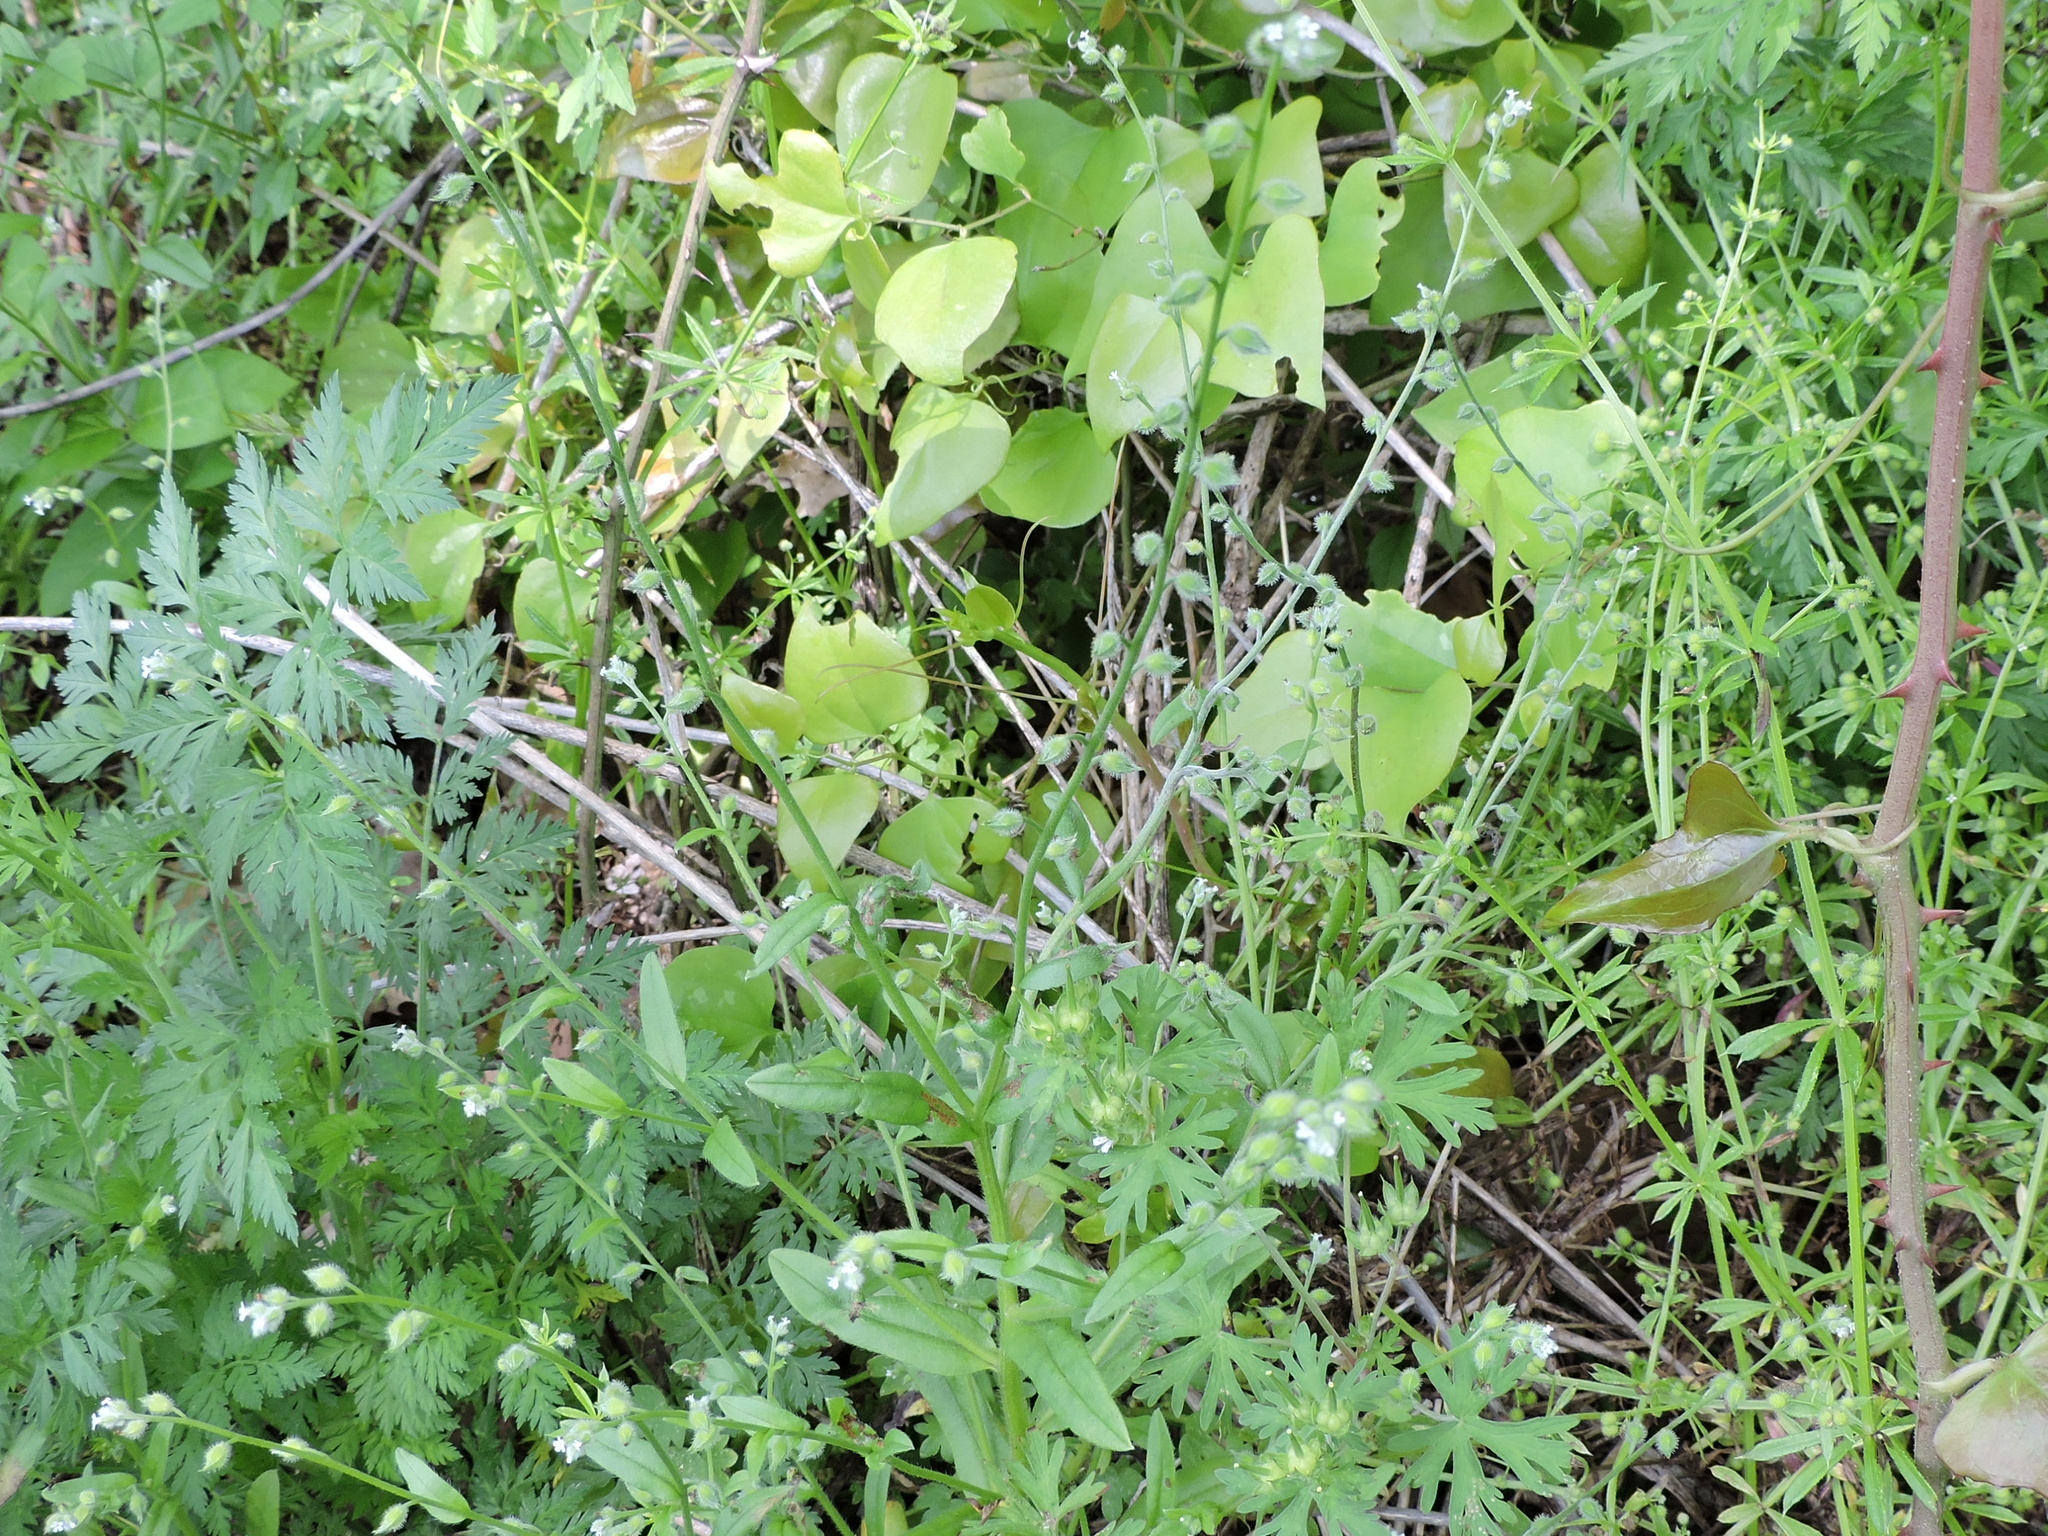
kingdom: Plantae
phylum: Tracheophyta
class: Magnoliopsida
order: Boraginales
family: Boraginaceae
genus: Myosotis
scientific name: Myosotis macrosperma
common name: Large-seed forget-me-not
